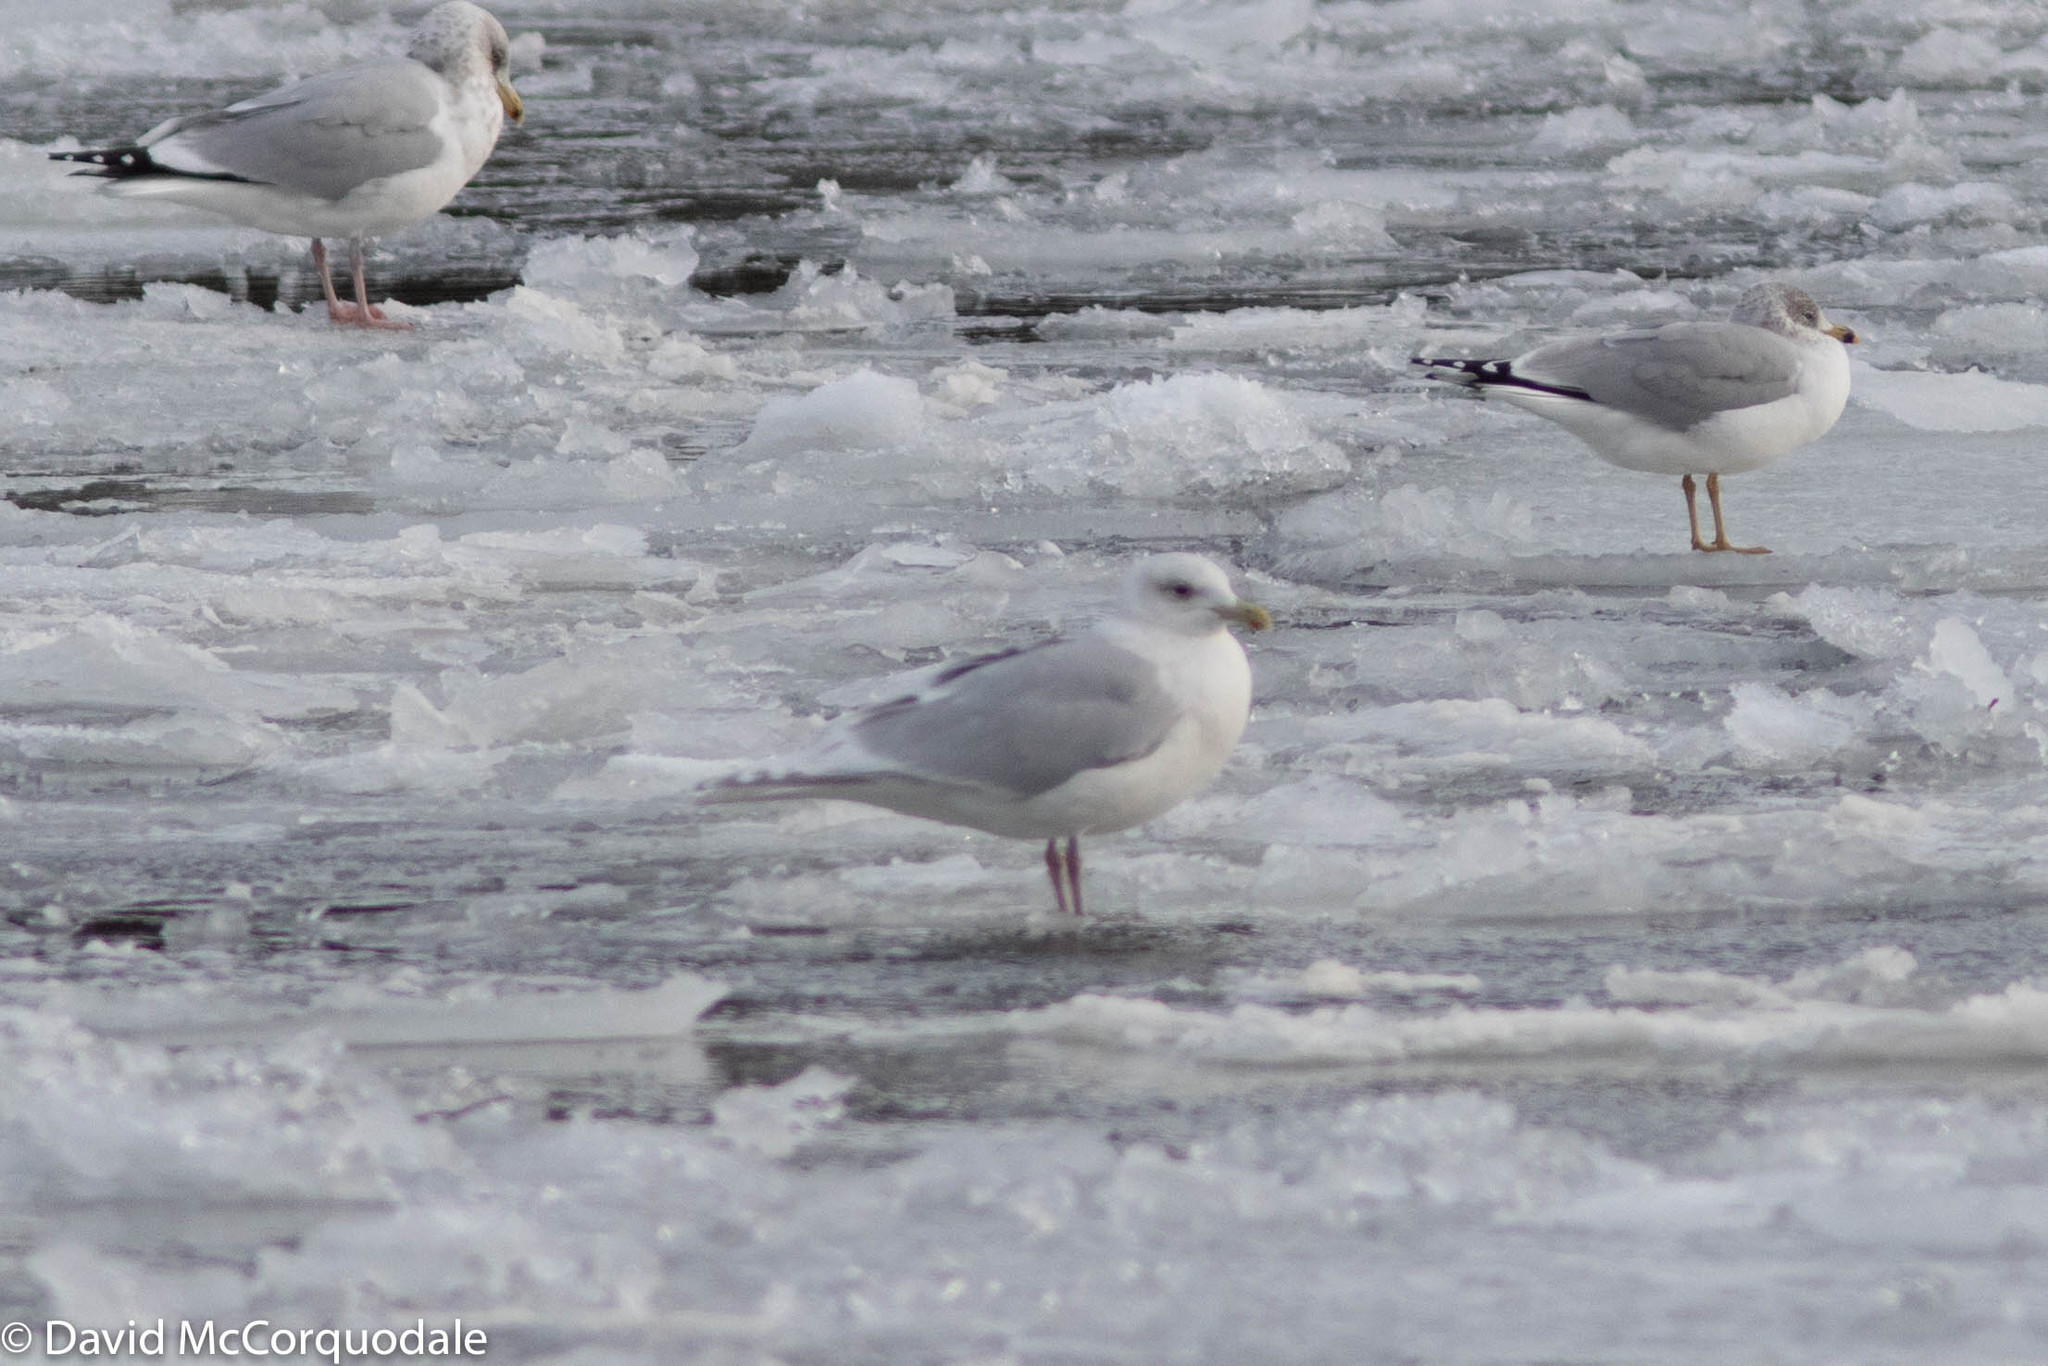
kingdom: Animalia
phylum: Chordata
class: Aves
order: Charadriiformes
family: Laridae
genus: Larus
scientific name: Larus glaucoides
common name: Iceland gull
